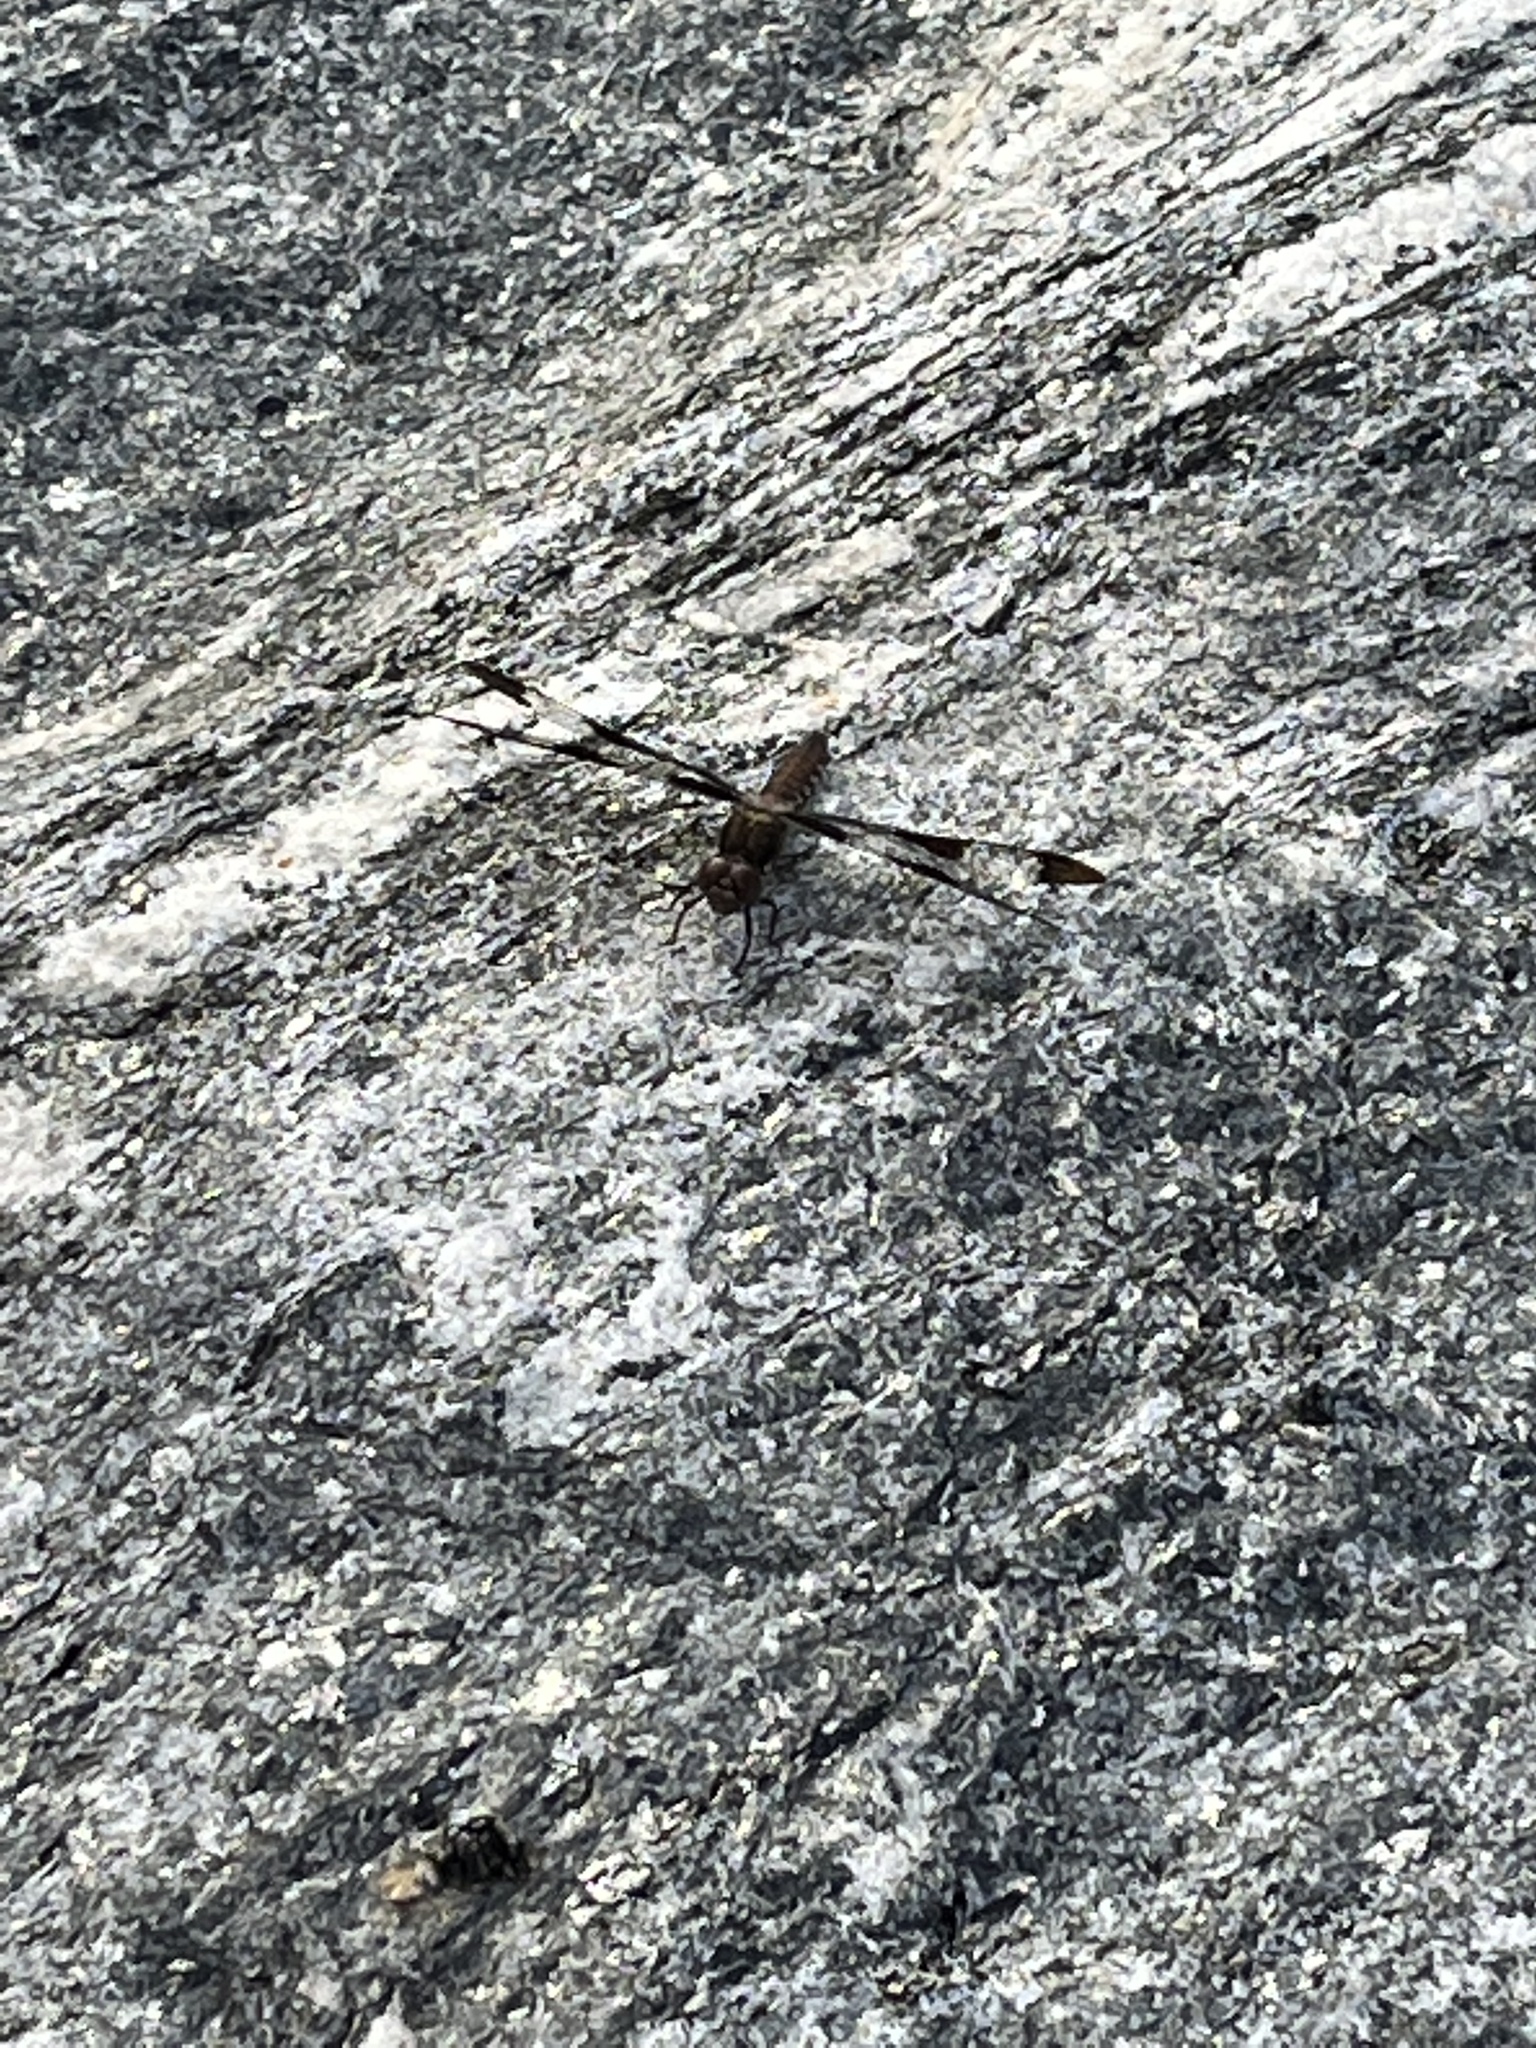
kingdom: Animalia
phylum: Arthropoda
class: Insecta
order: Odonata
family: Libellulidae
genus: Plathemis
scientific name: Plathemis lydia
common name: Common whitetail
